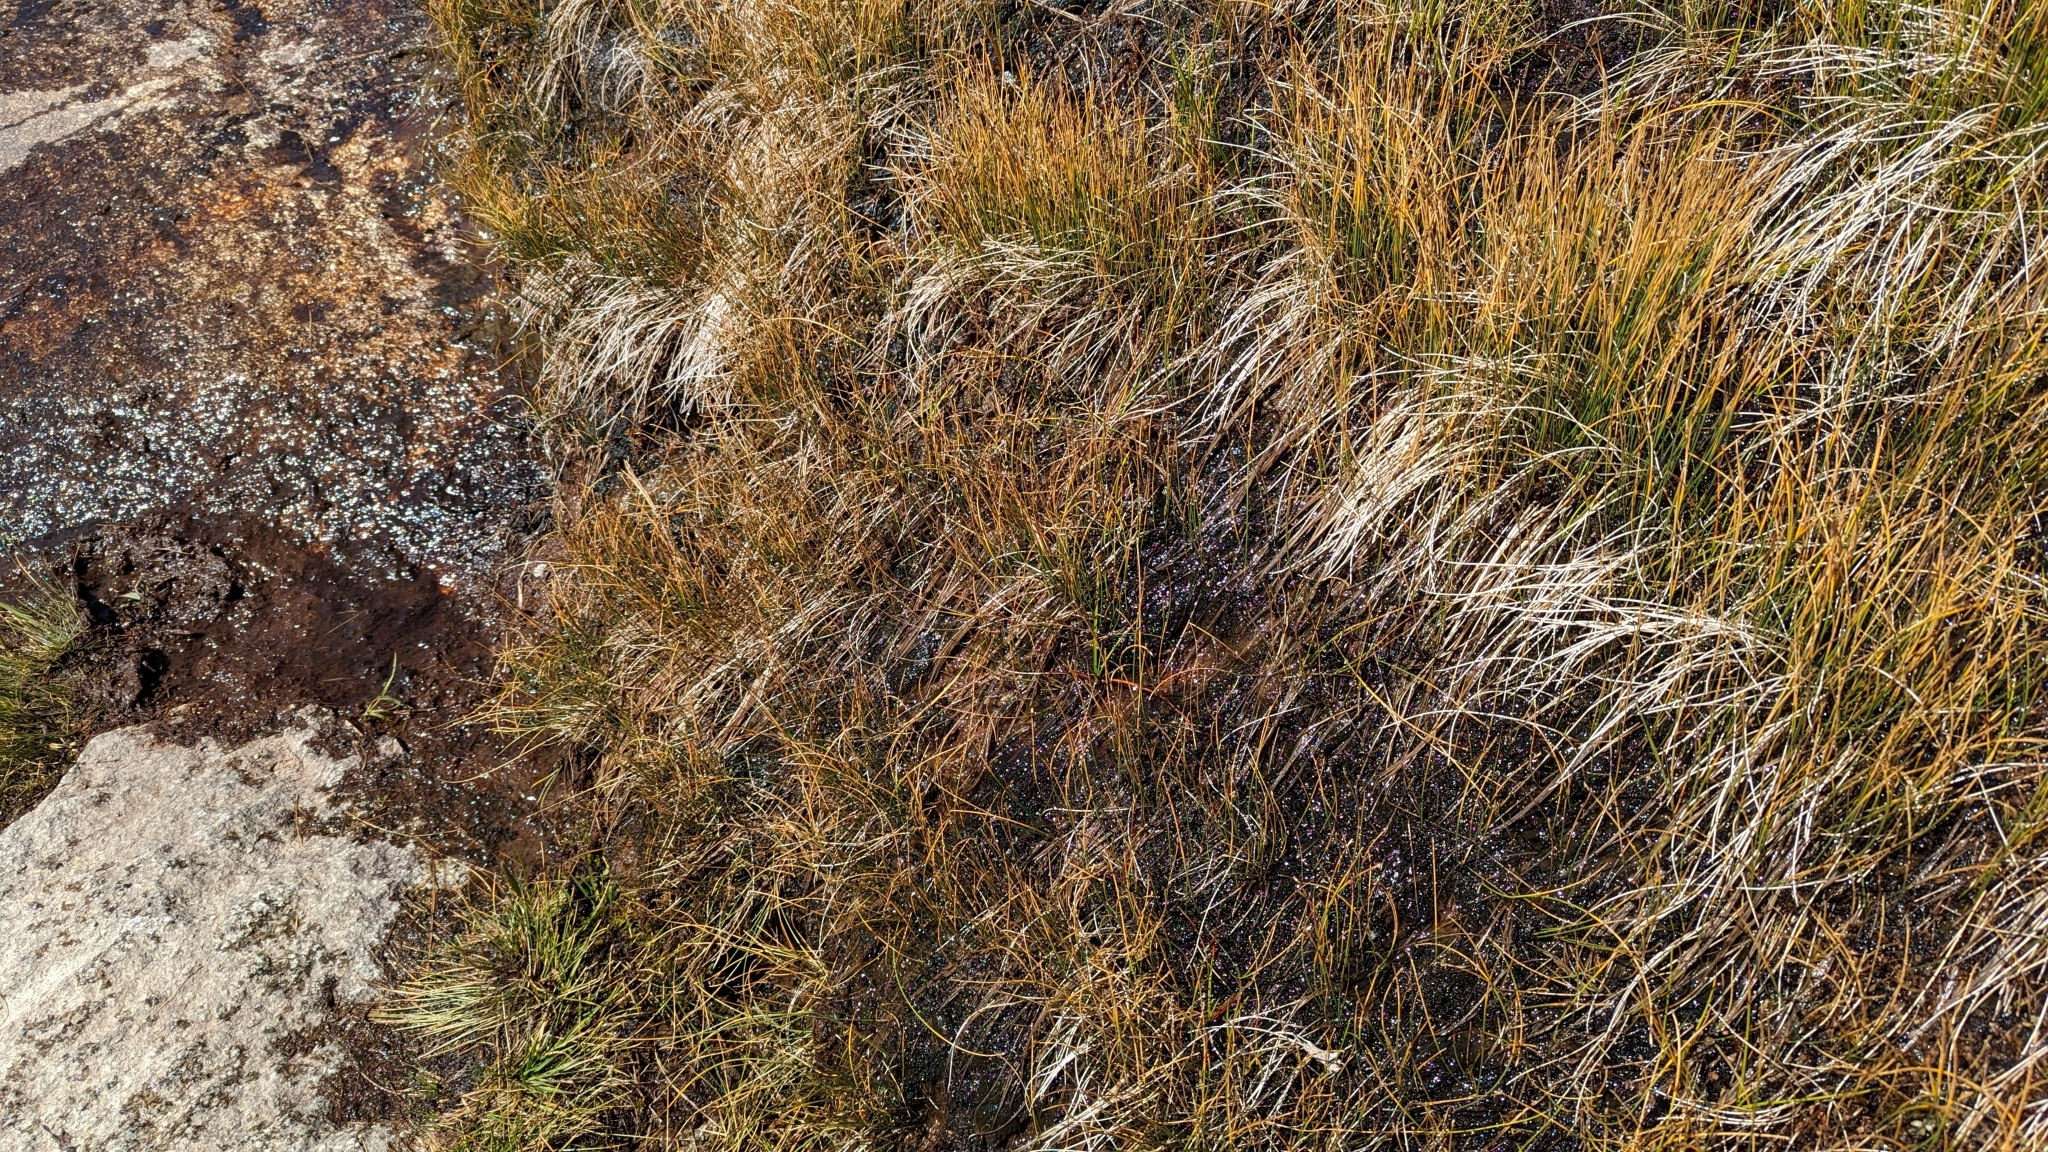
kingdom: Plantae
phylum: Tracheophyta
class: Magnoliopsida
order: Caryophyllales
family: Droseraceae
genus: Drosera
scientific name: Drosera rotundifolia
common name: Round-leaved sundew
